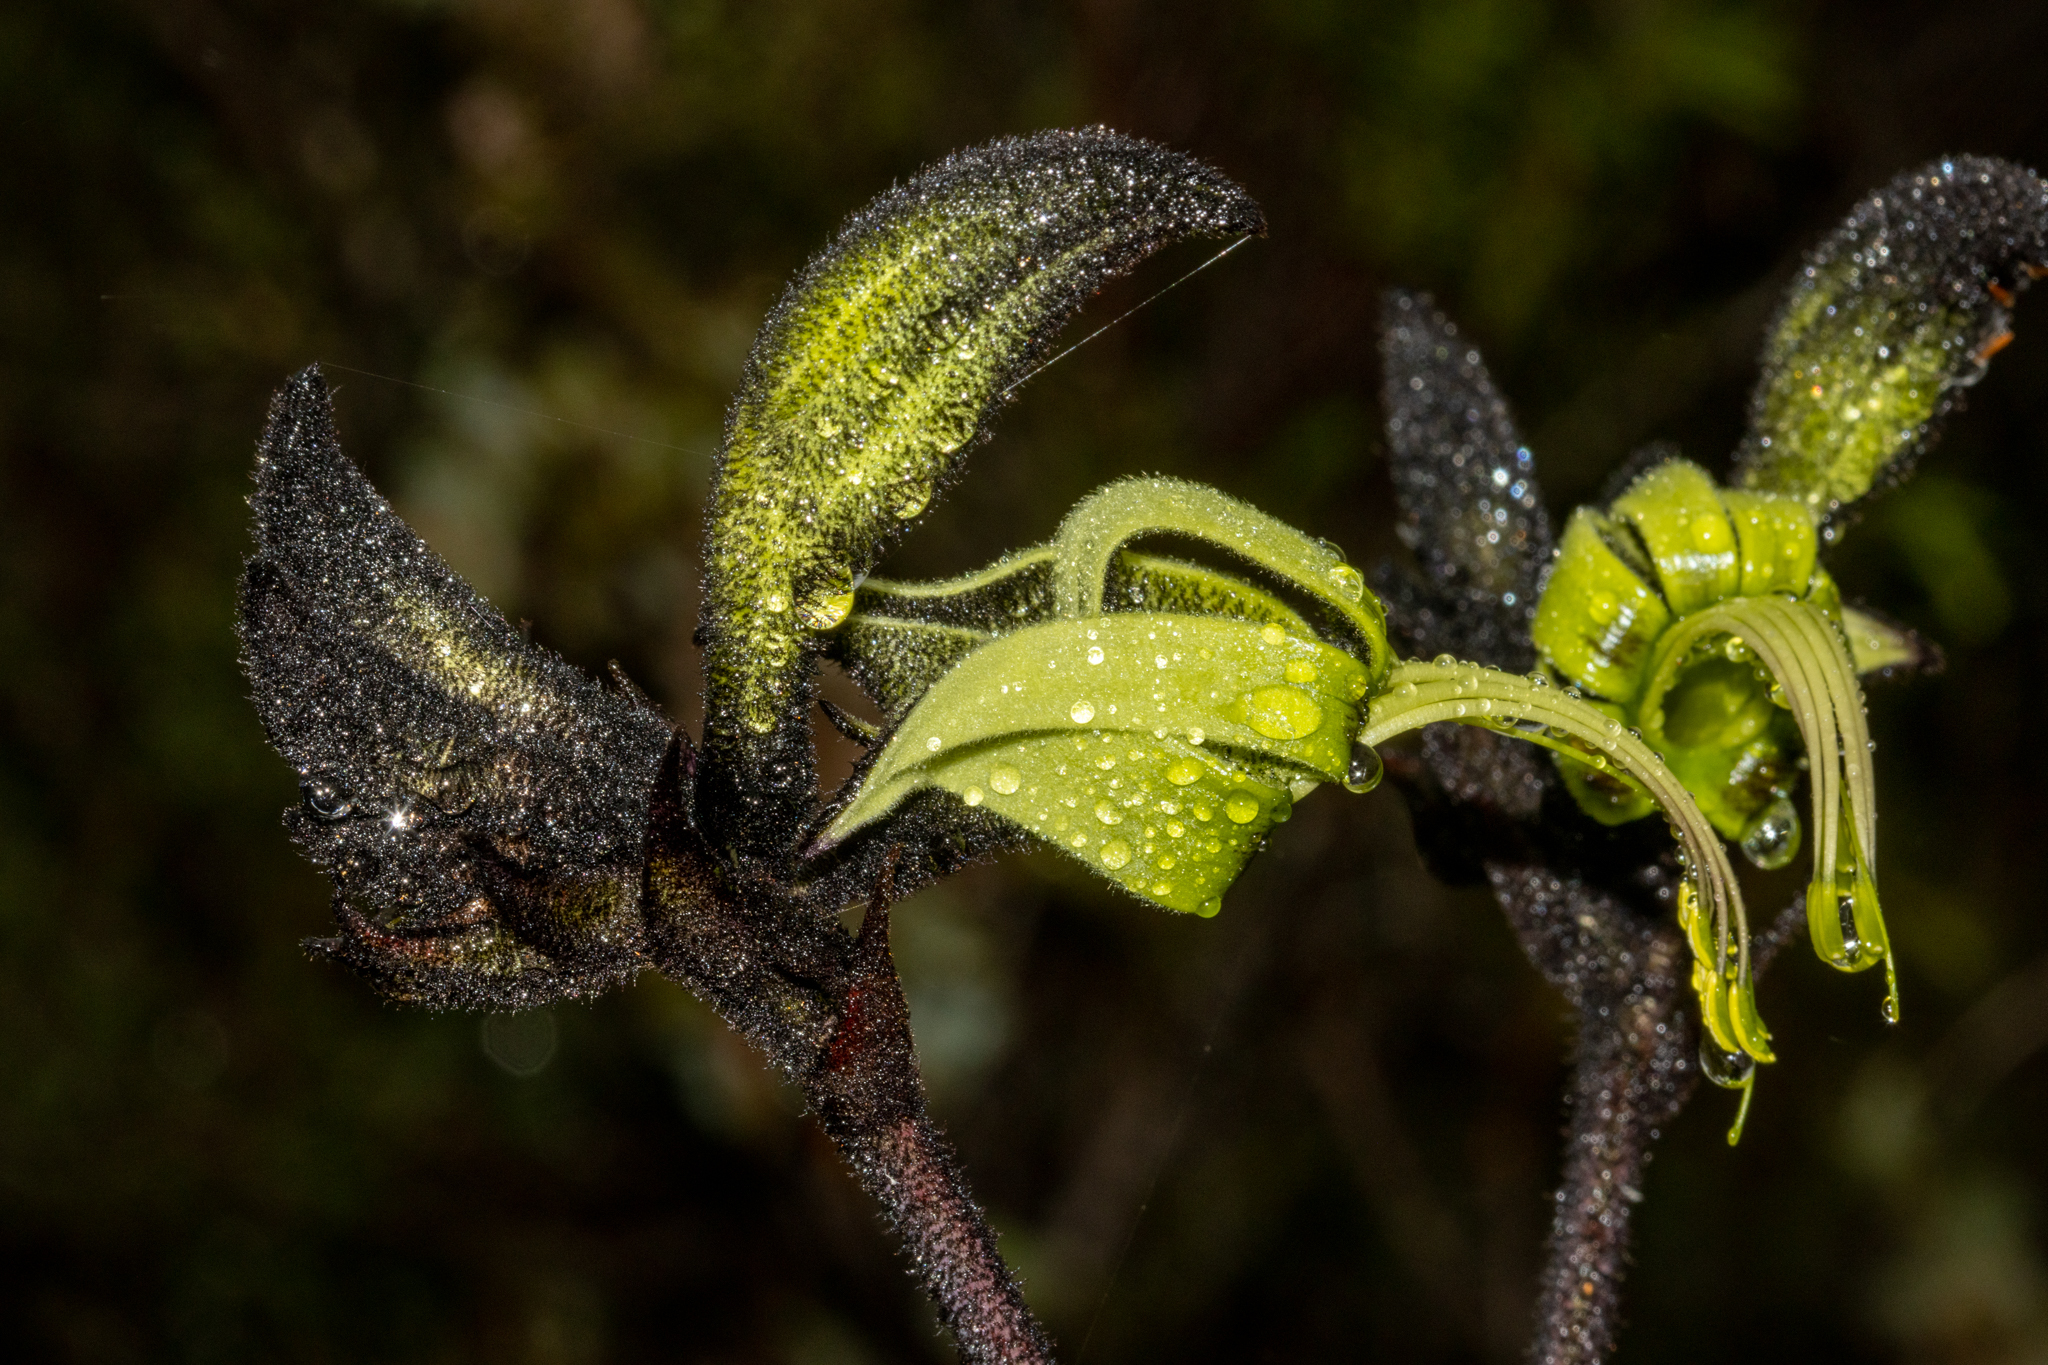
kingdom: Plantae
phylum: Tracheophyta
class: Liliopsida
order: Commelinales
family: Haemodoraceae
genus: Macropidia
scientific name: Macropidia fuliginosa
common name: Black kangaroo-paw
